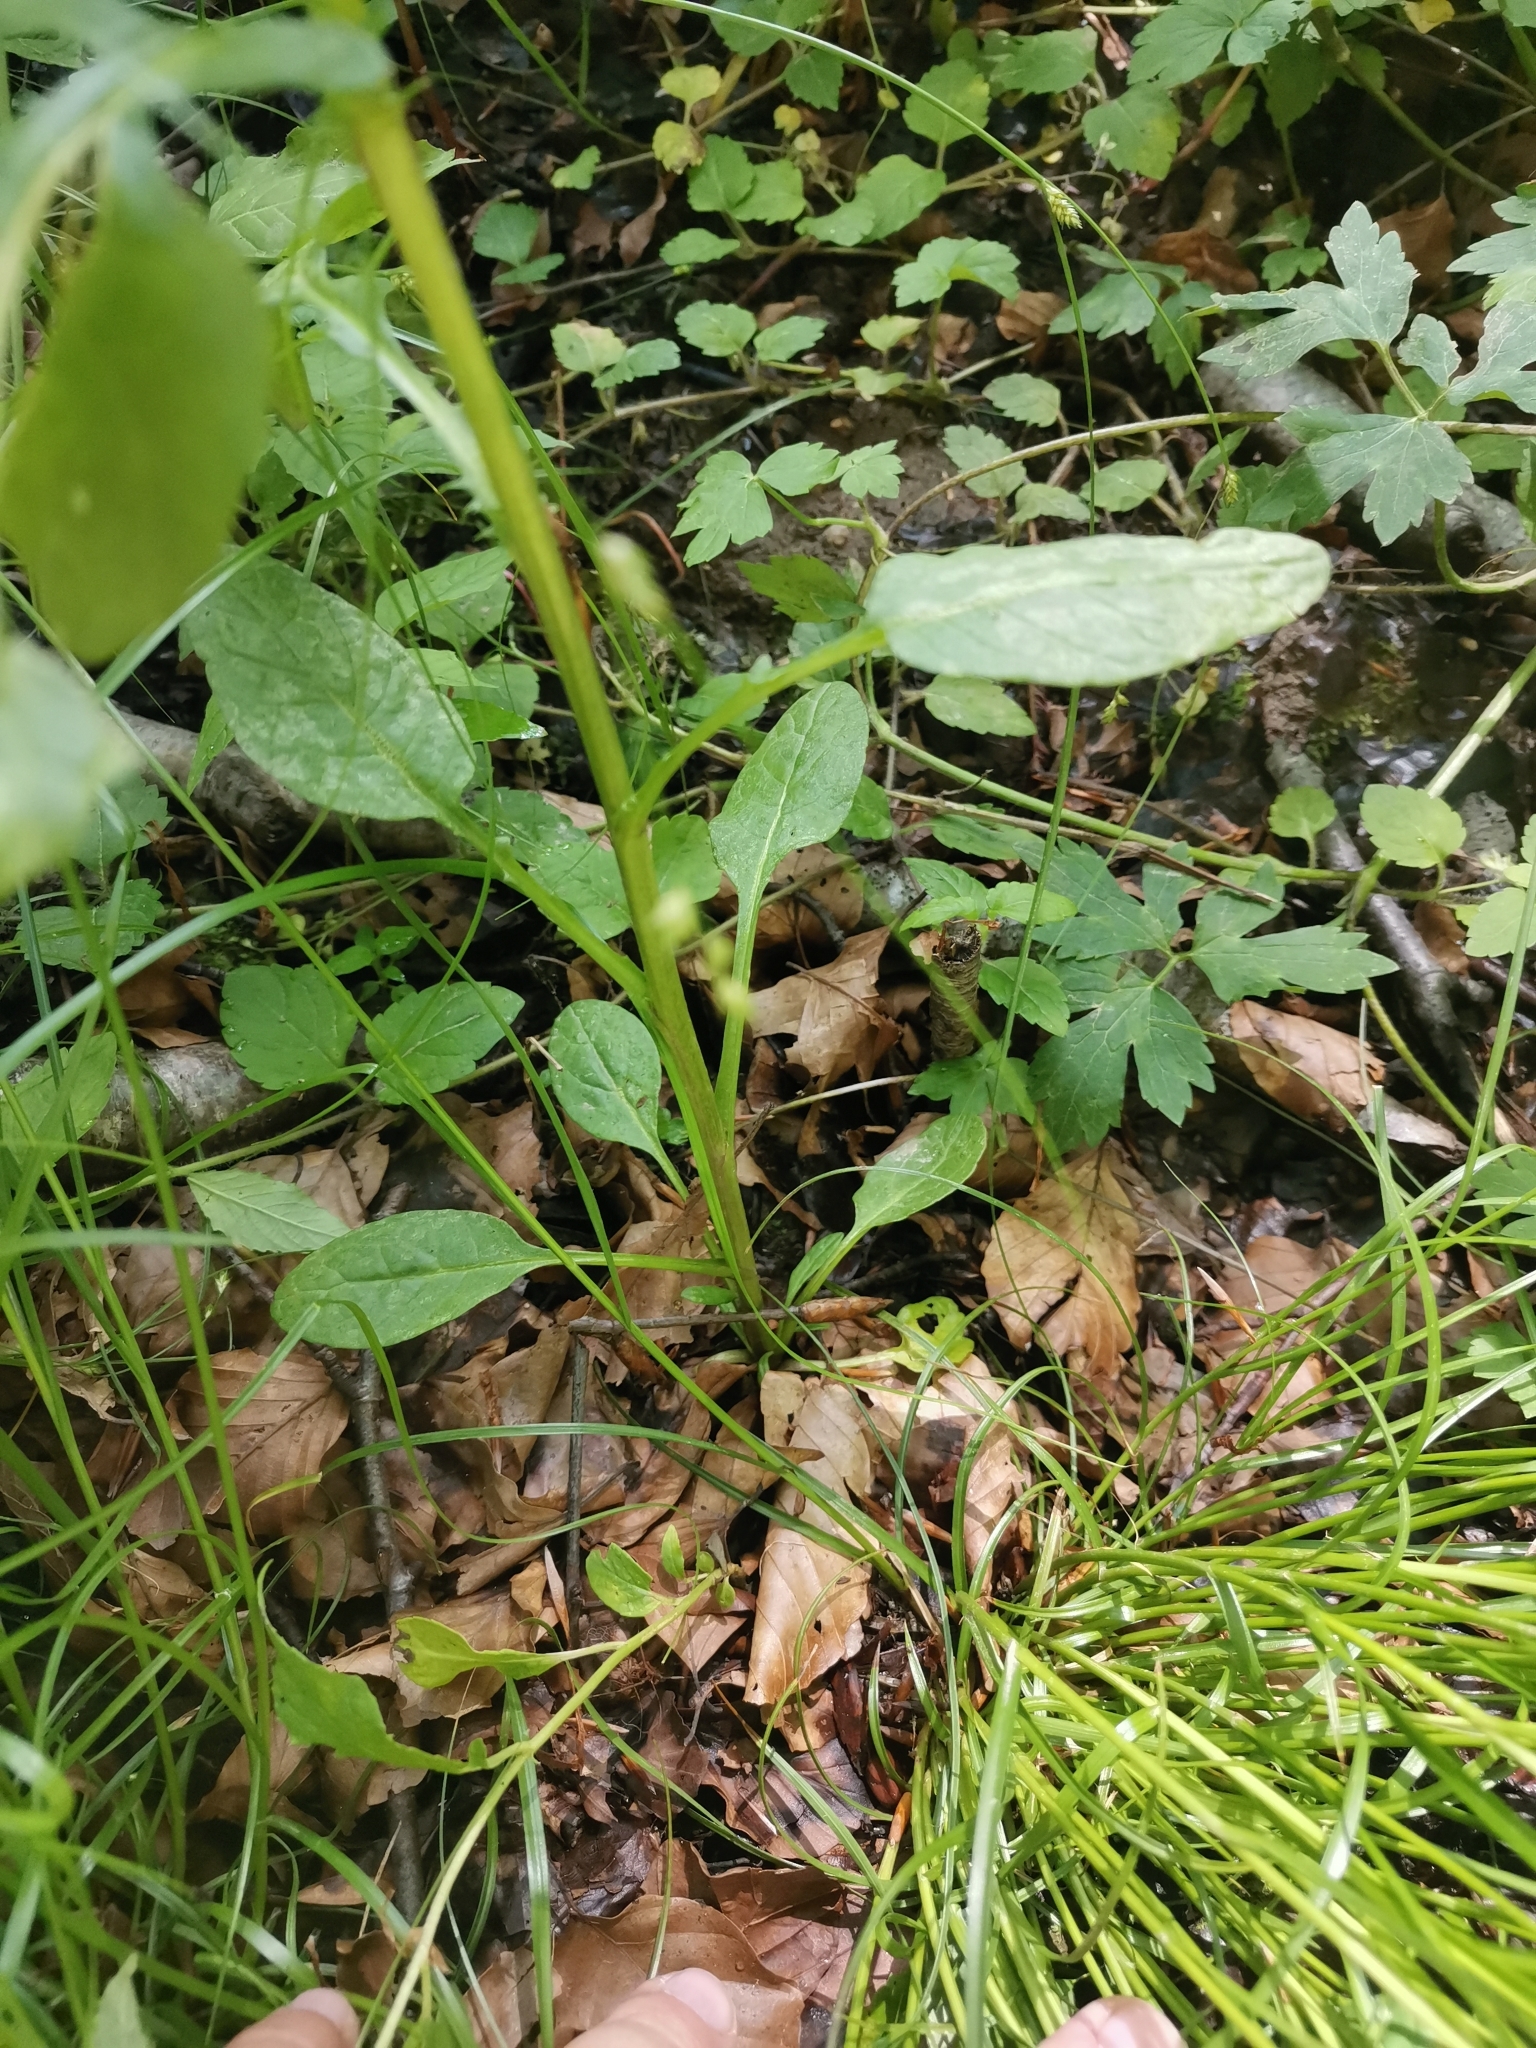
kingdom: Plantae
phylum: Tracheophyta
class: Magnoliopsida
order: Asterales
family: Asteraceae
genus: Jacobaea
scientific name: Jacobaea aquatica
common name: Water ragwort
